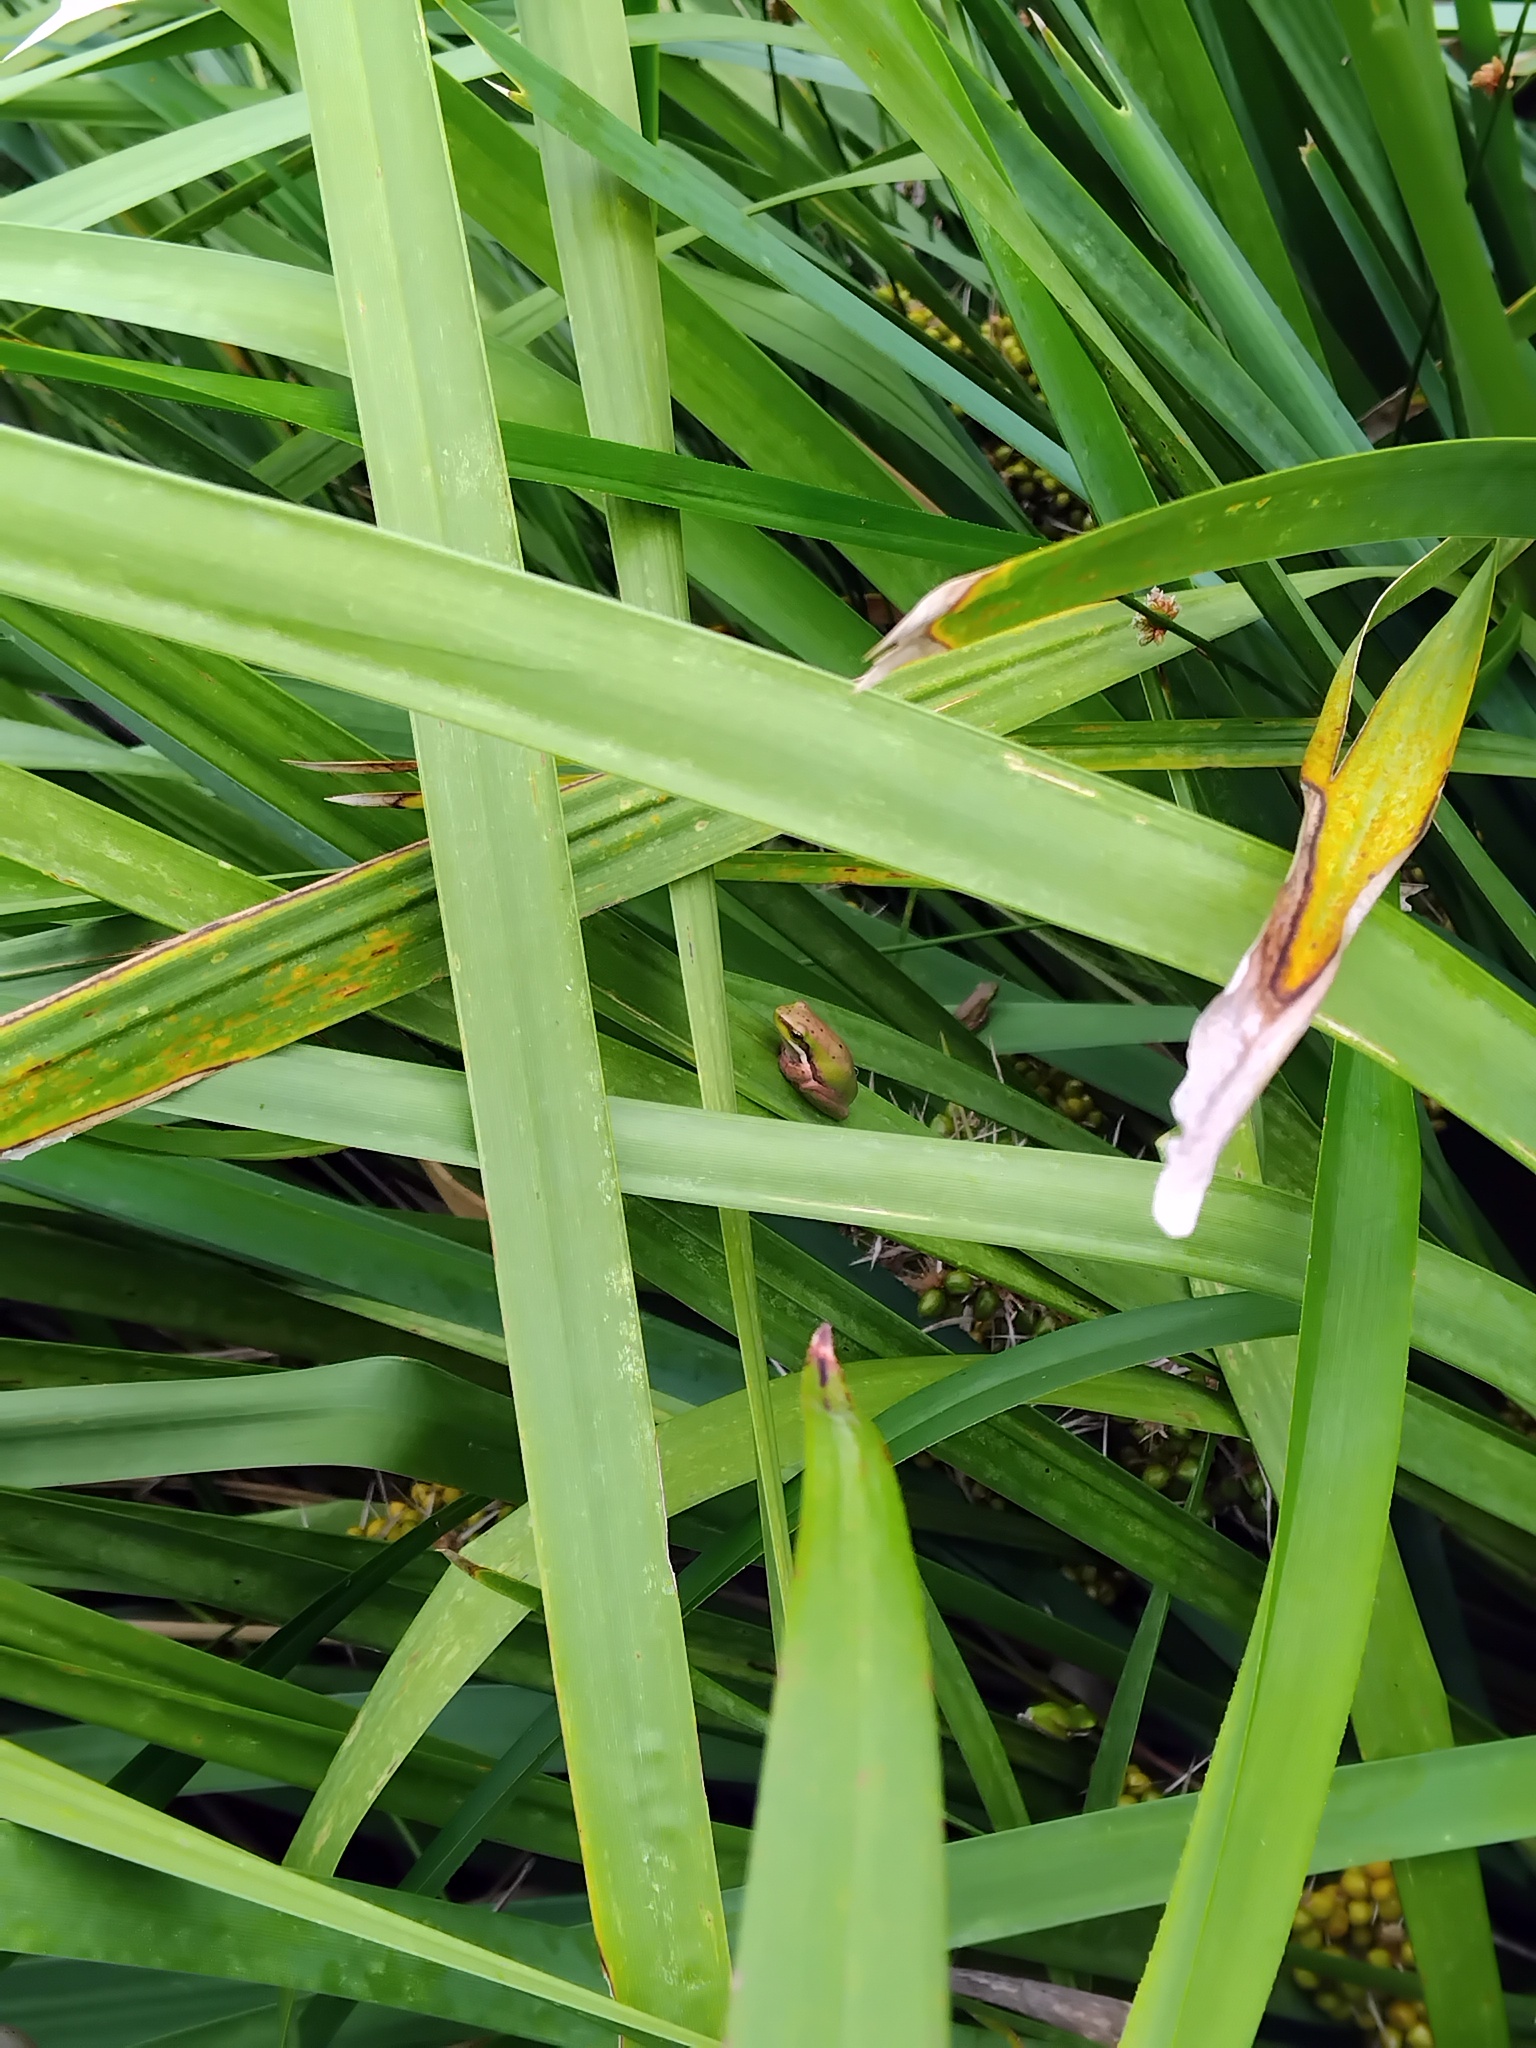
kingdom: Animalia
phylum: Chordata
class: Amphibia
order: Anura
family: Pelodryadidae
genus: Litoria
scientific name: Litoria fallax
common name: Eastern dwarf treefrog
